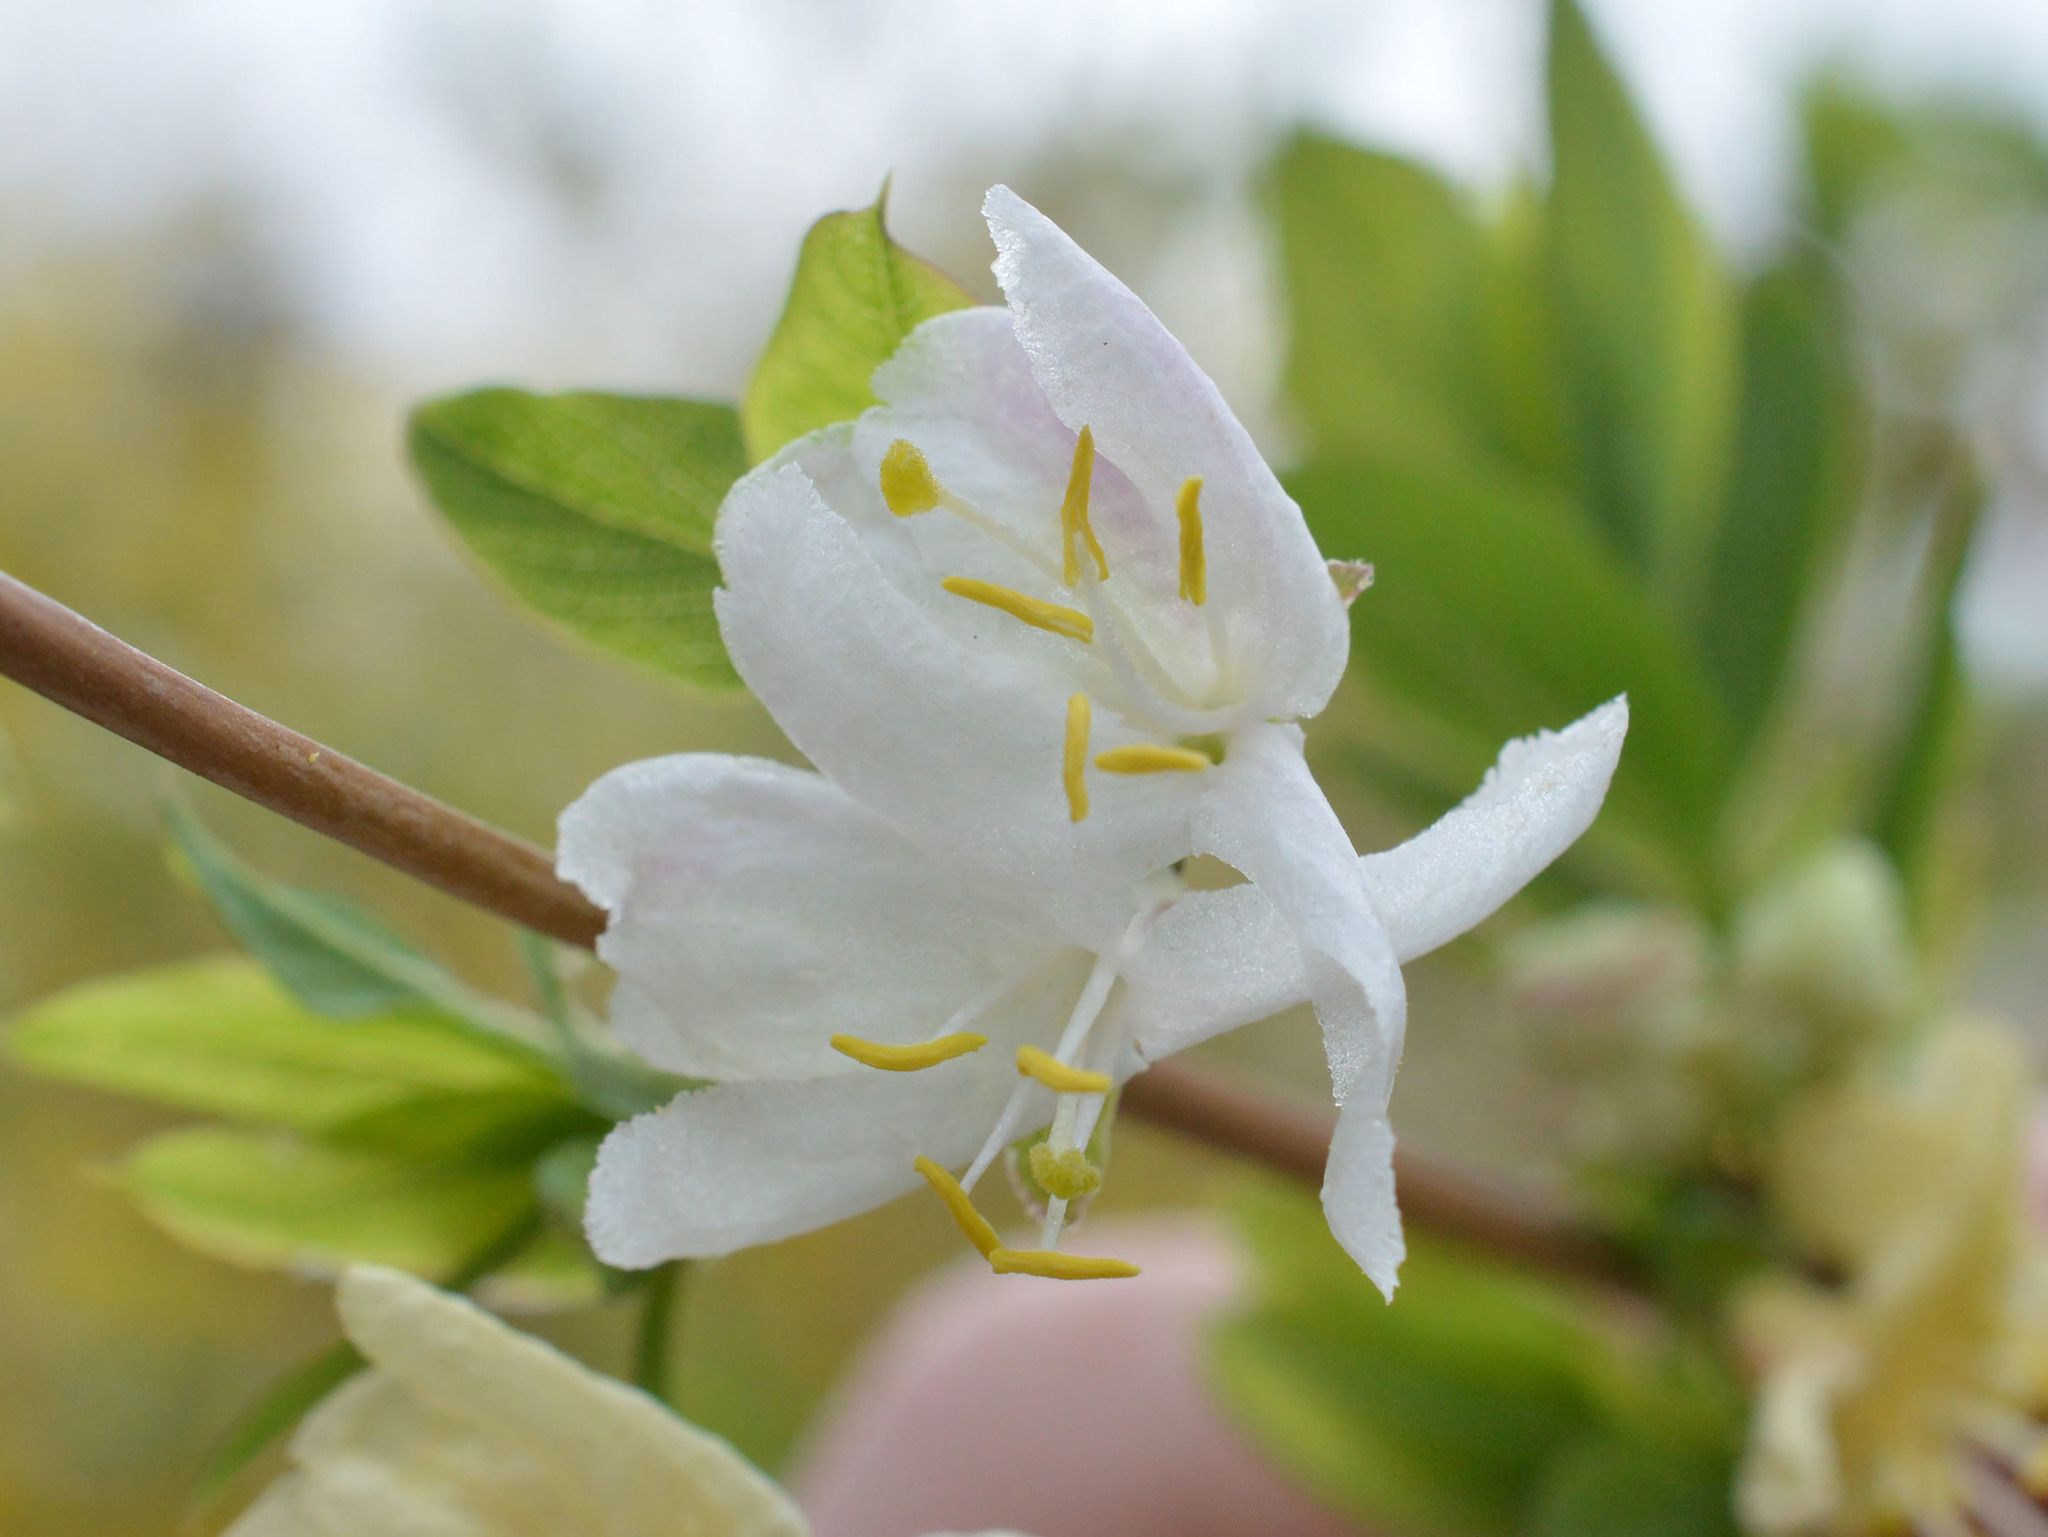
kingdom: Plantae
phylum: Tracheophyta
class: Magnoliopsida
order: Dipsacales
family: Caprifoliaceae
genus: Lonicera
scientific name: Lonicera fragrantissima
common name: Fragrant honeysuckle
